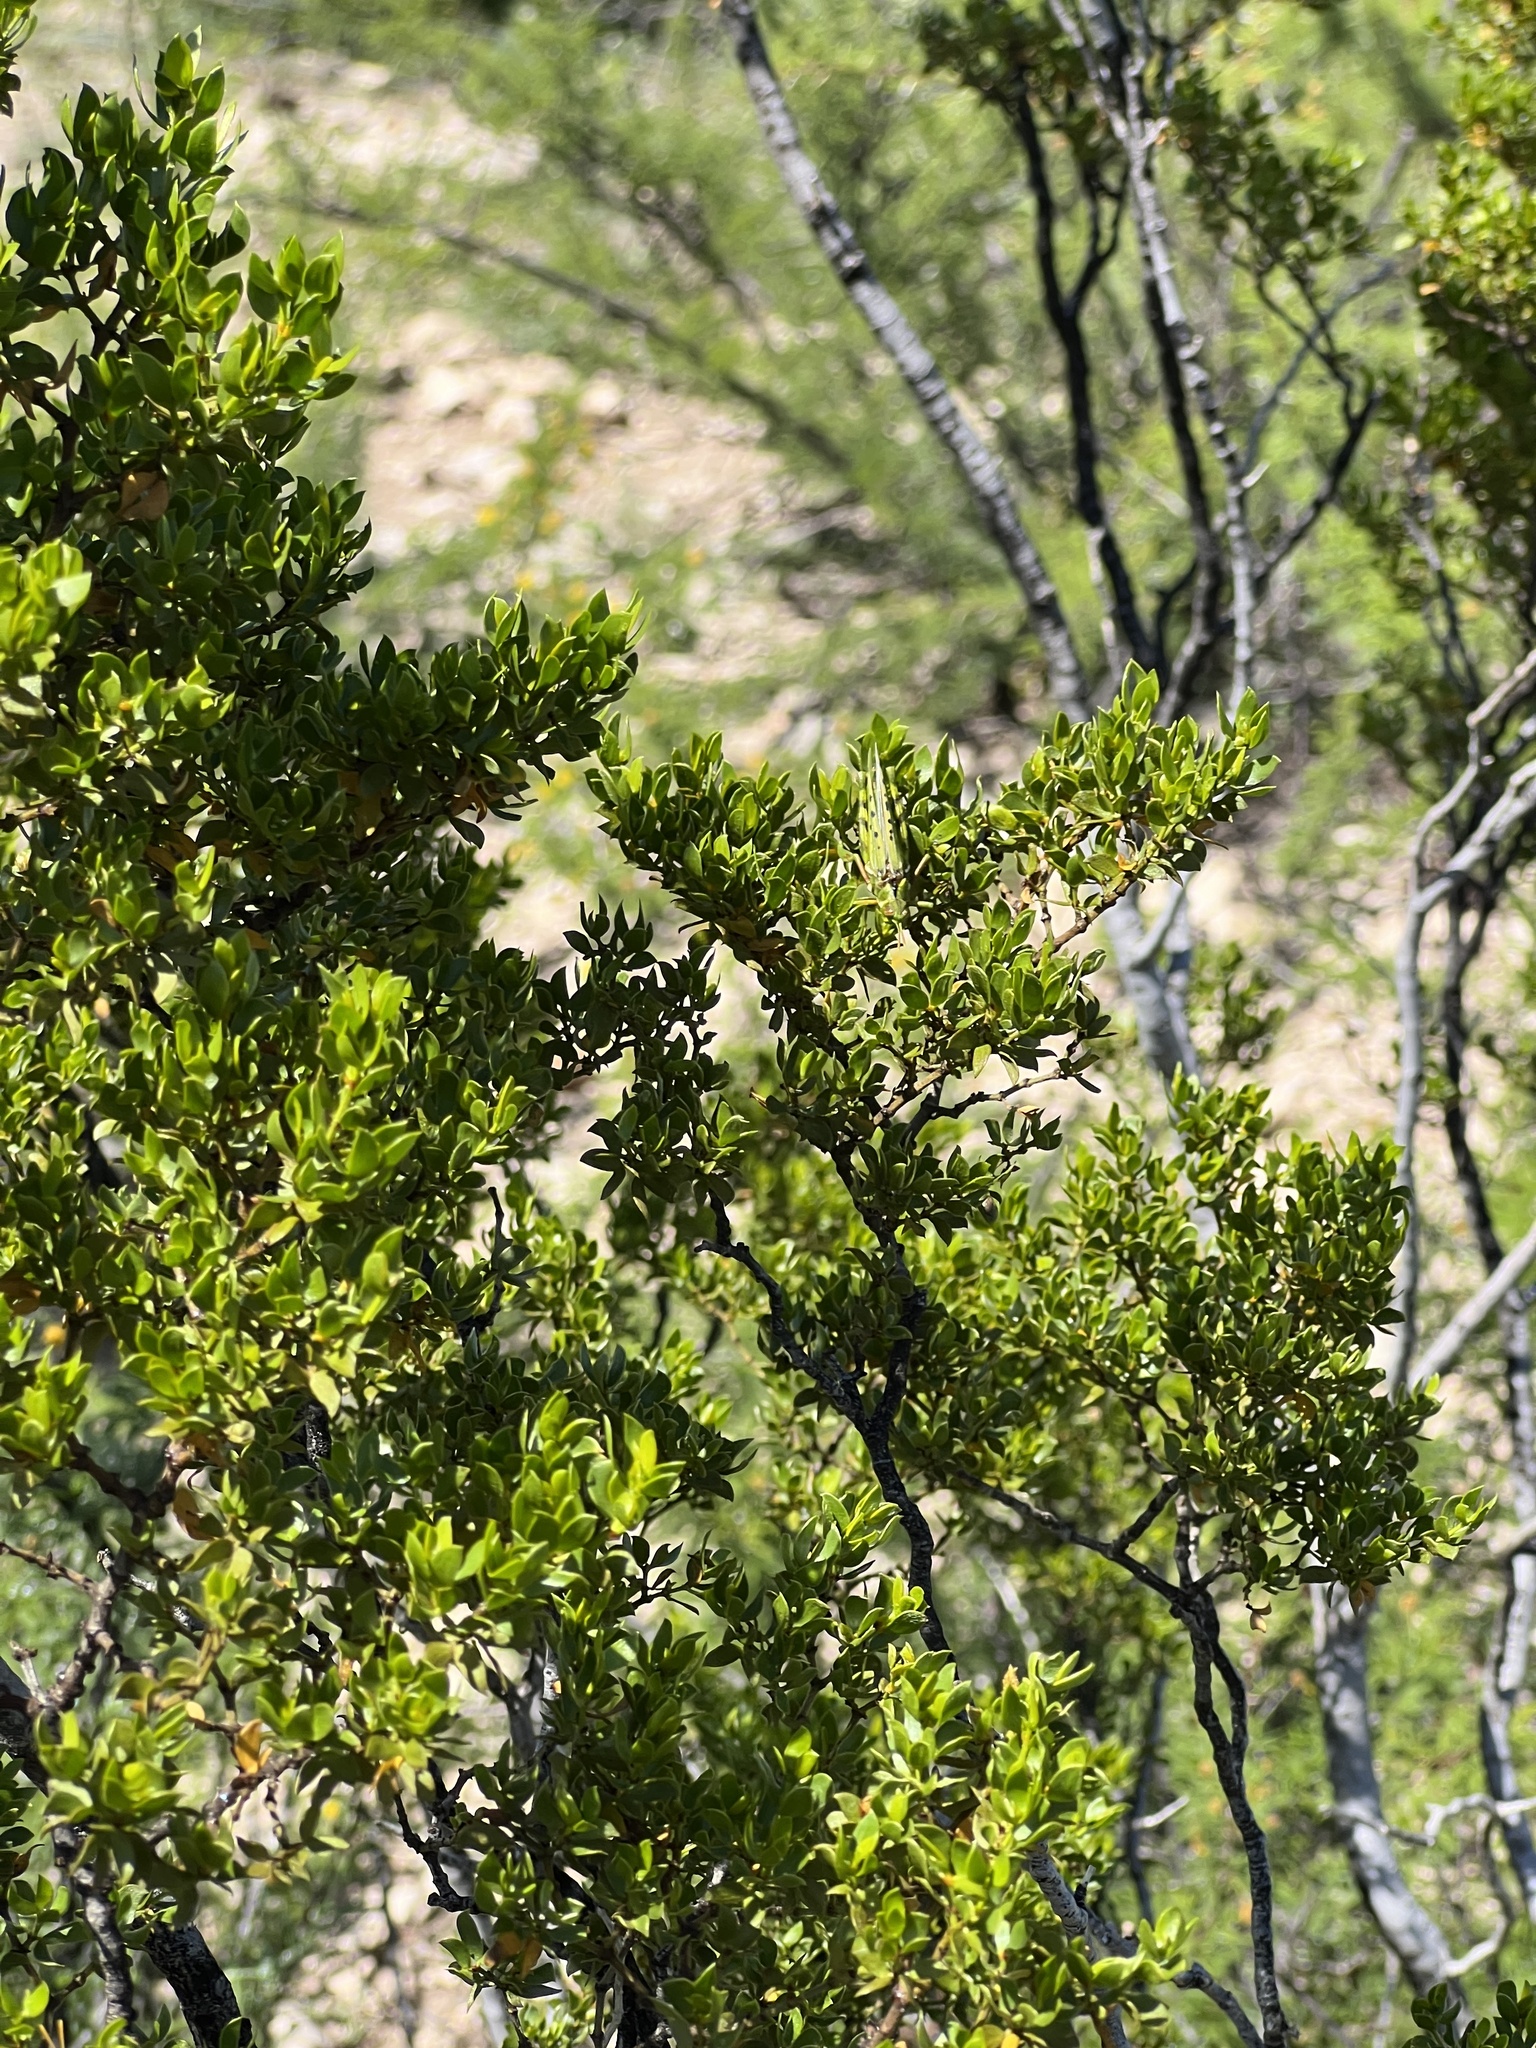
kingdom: Plantae
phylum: Tracheophyta
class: Magnoliopsida
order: Zygophyllales
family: Zygophyllaceae
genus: Larrea
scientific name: Larrea tridentata
